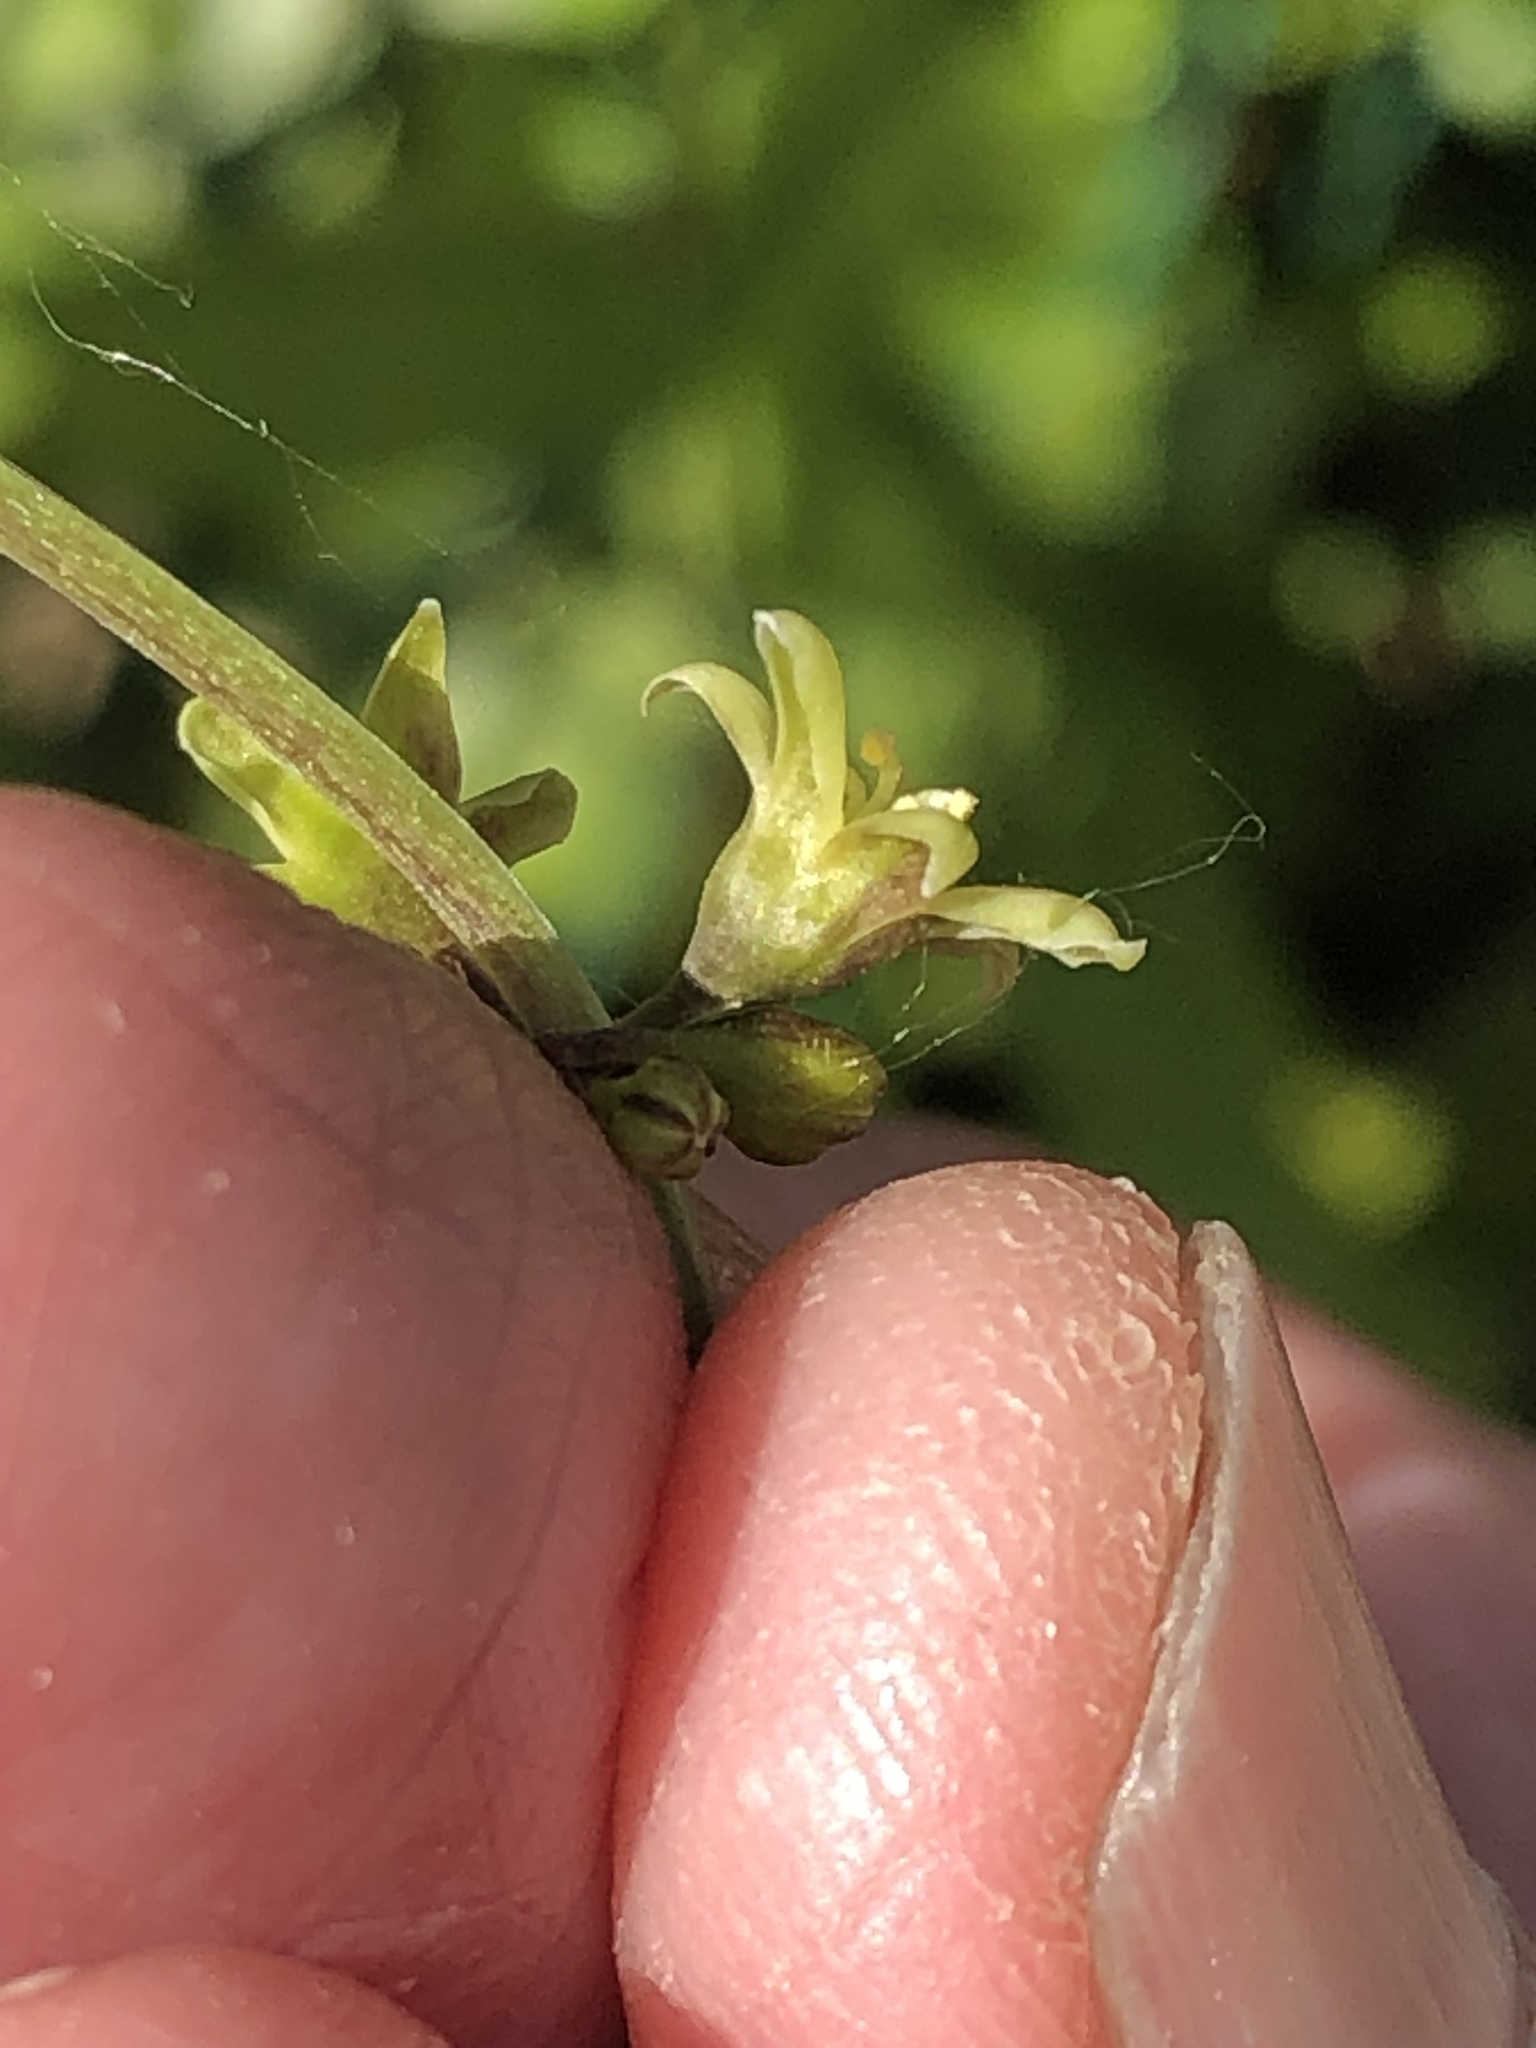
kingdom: Plantae
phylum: Tracheophyta
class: Liliopsida
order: Dioscoreales
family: Dioscoreaceae
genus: Dioscorea
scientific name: Dioscorea communis
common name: Black-bindweed
